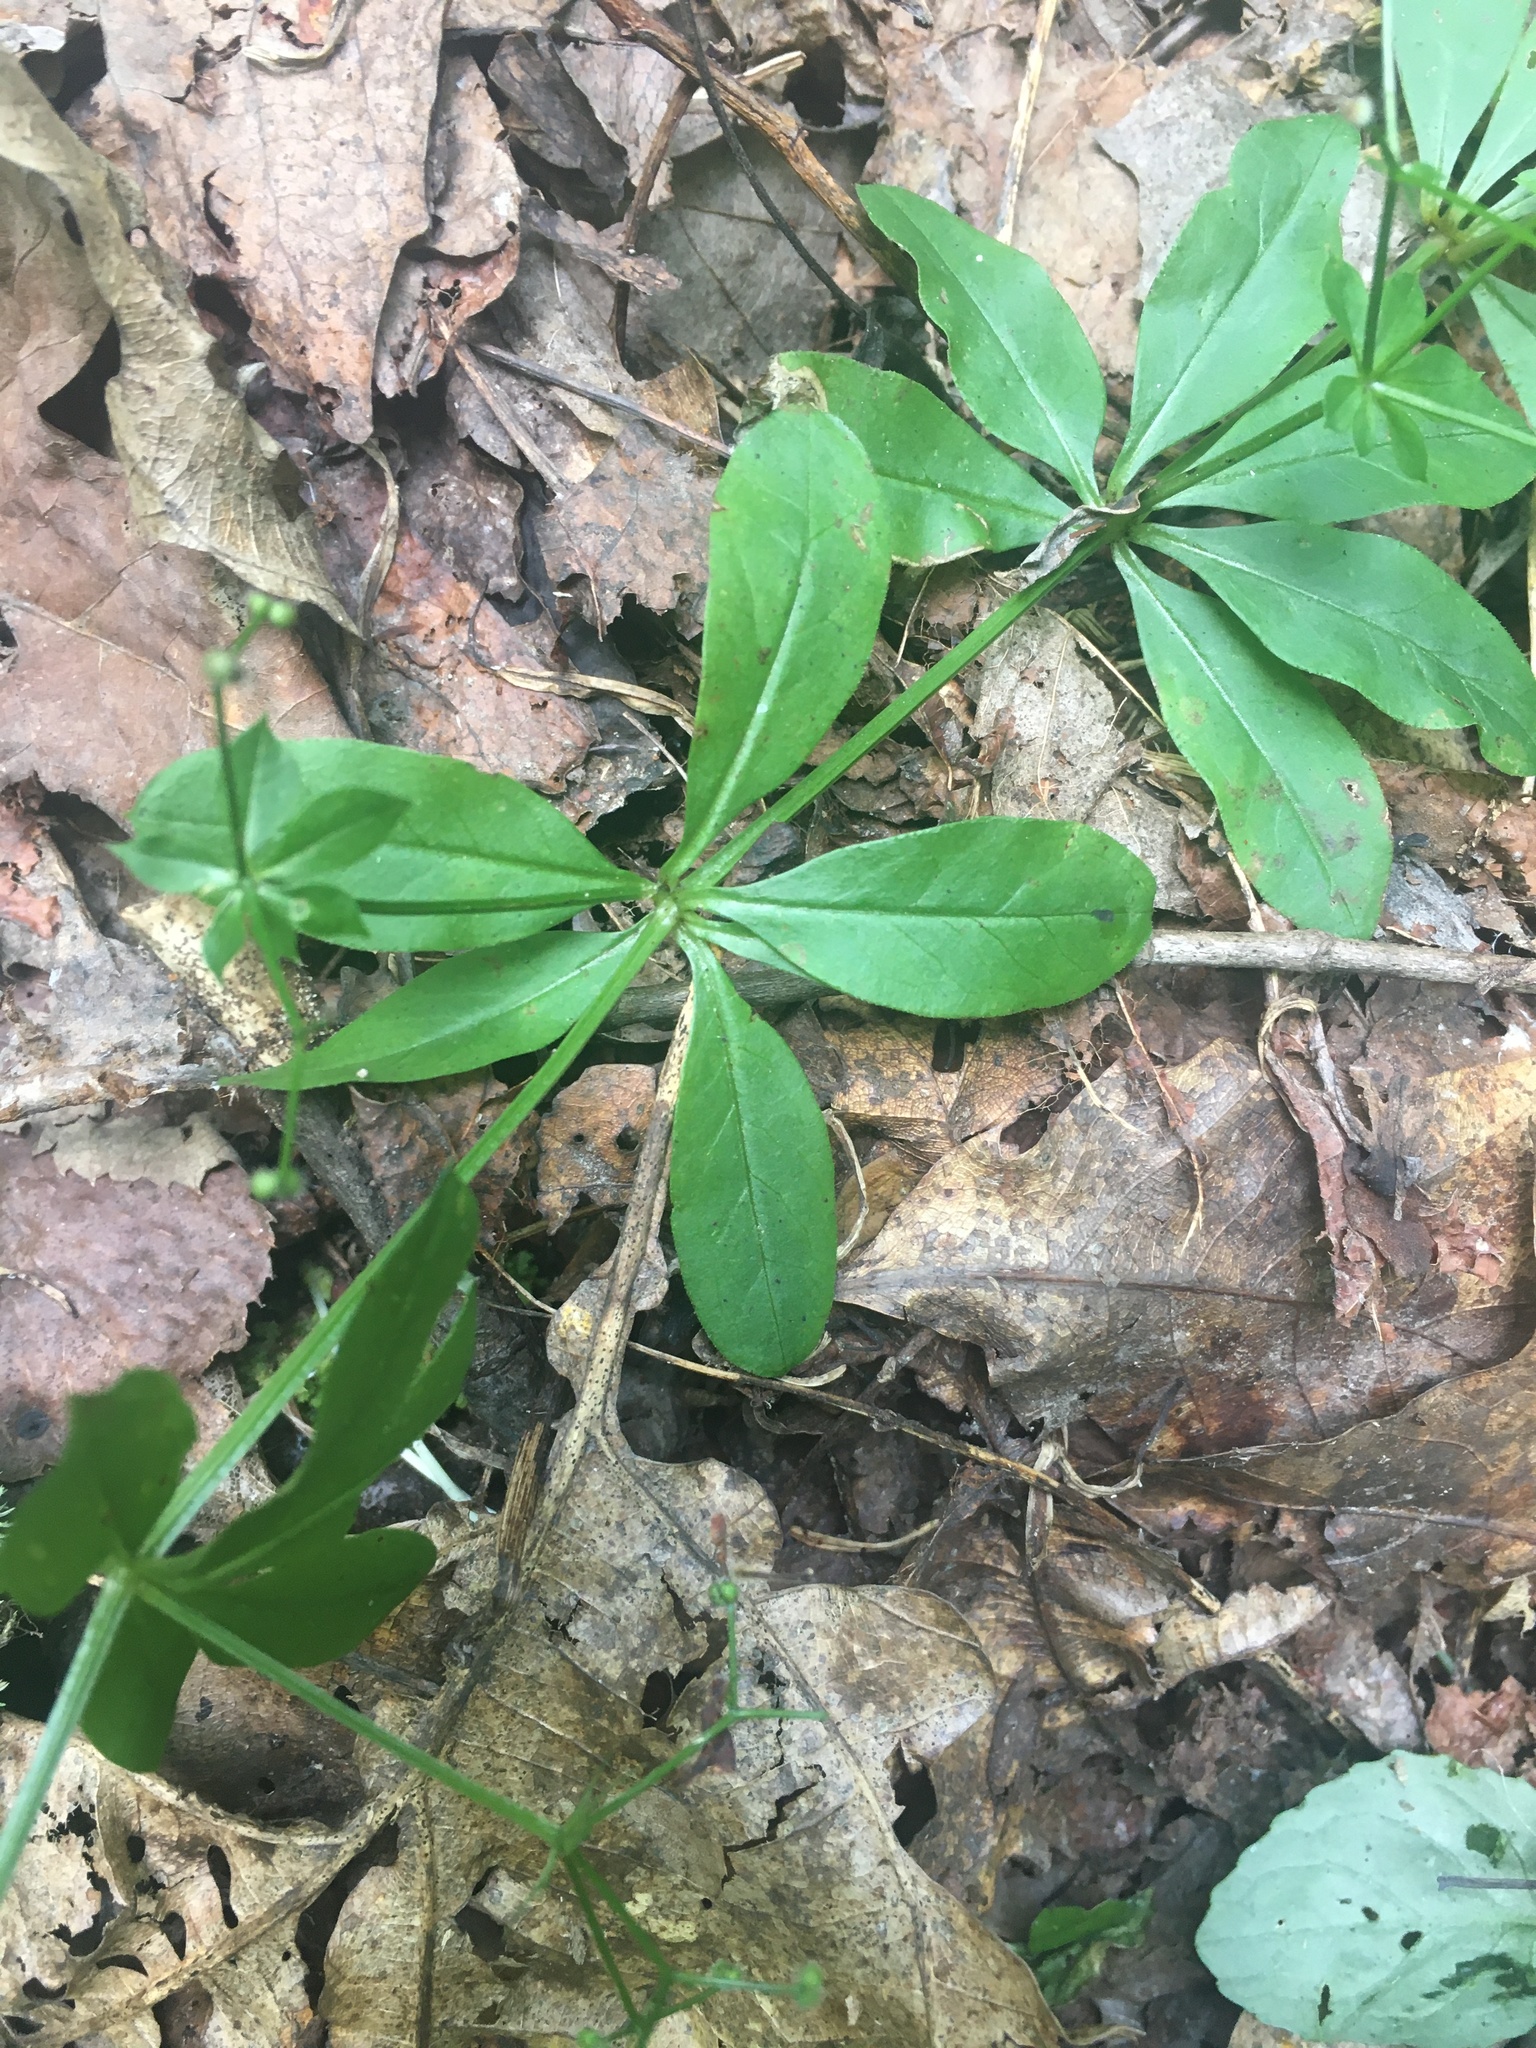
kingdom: Plantae
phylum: Tracheophyta
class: Magnoliopsida
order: Gentianales
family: Rubiaceae
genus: Galium
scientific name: Galium triflorum
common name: Fragrant bedstraw
